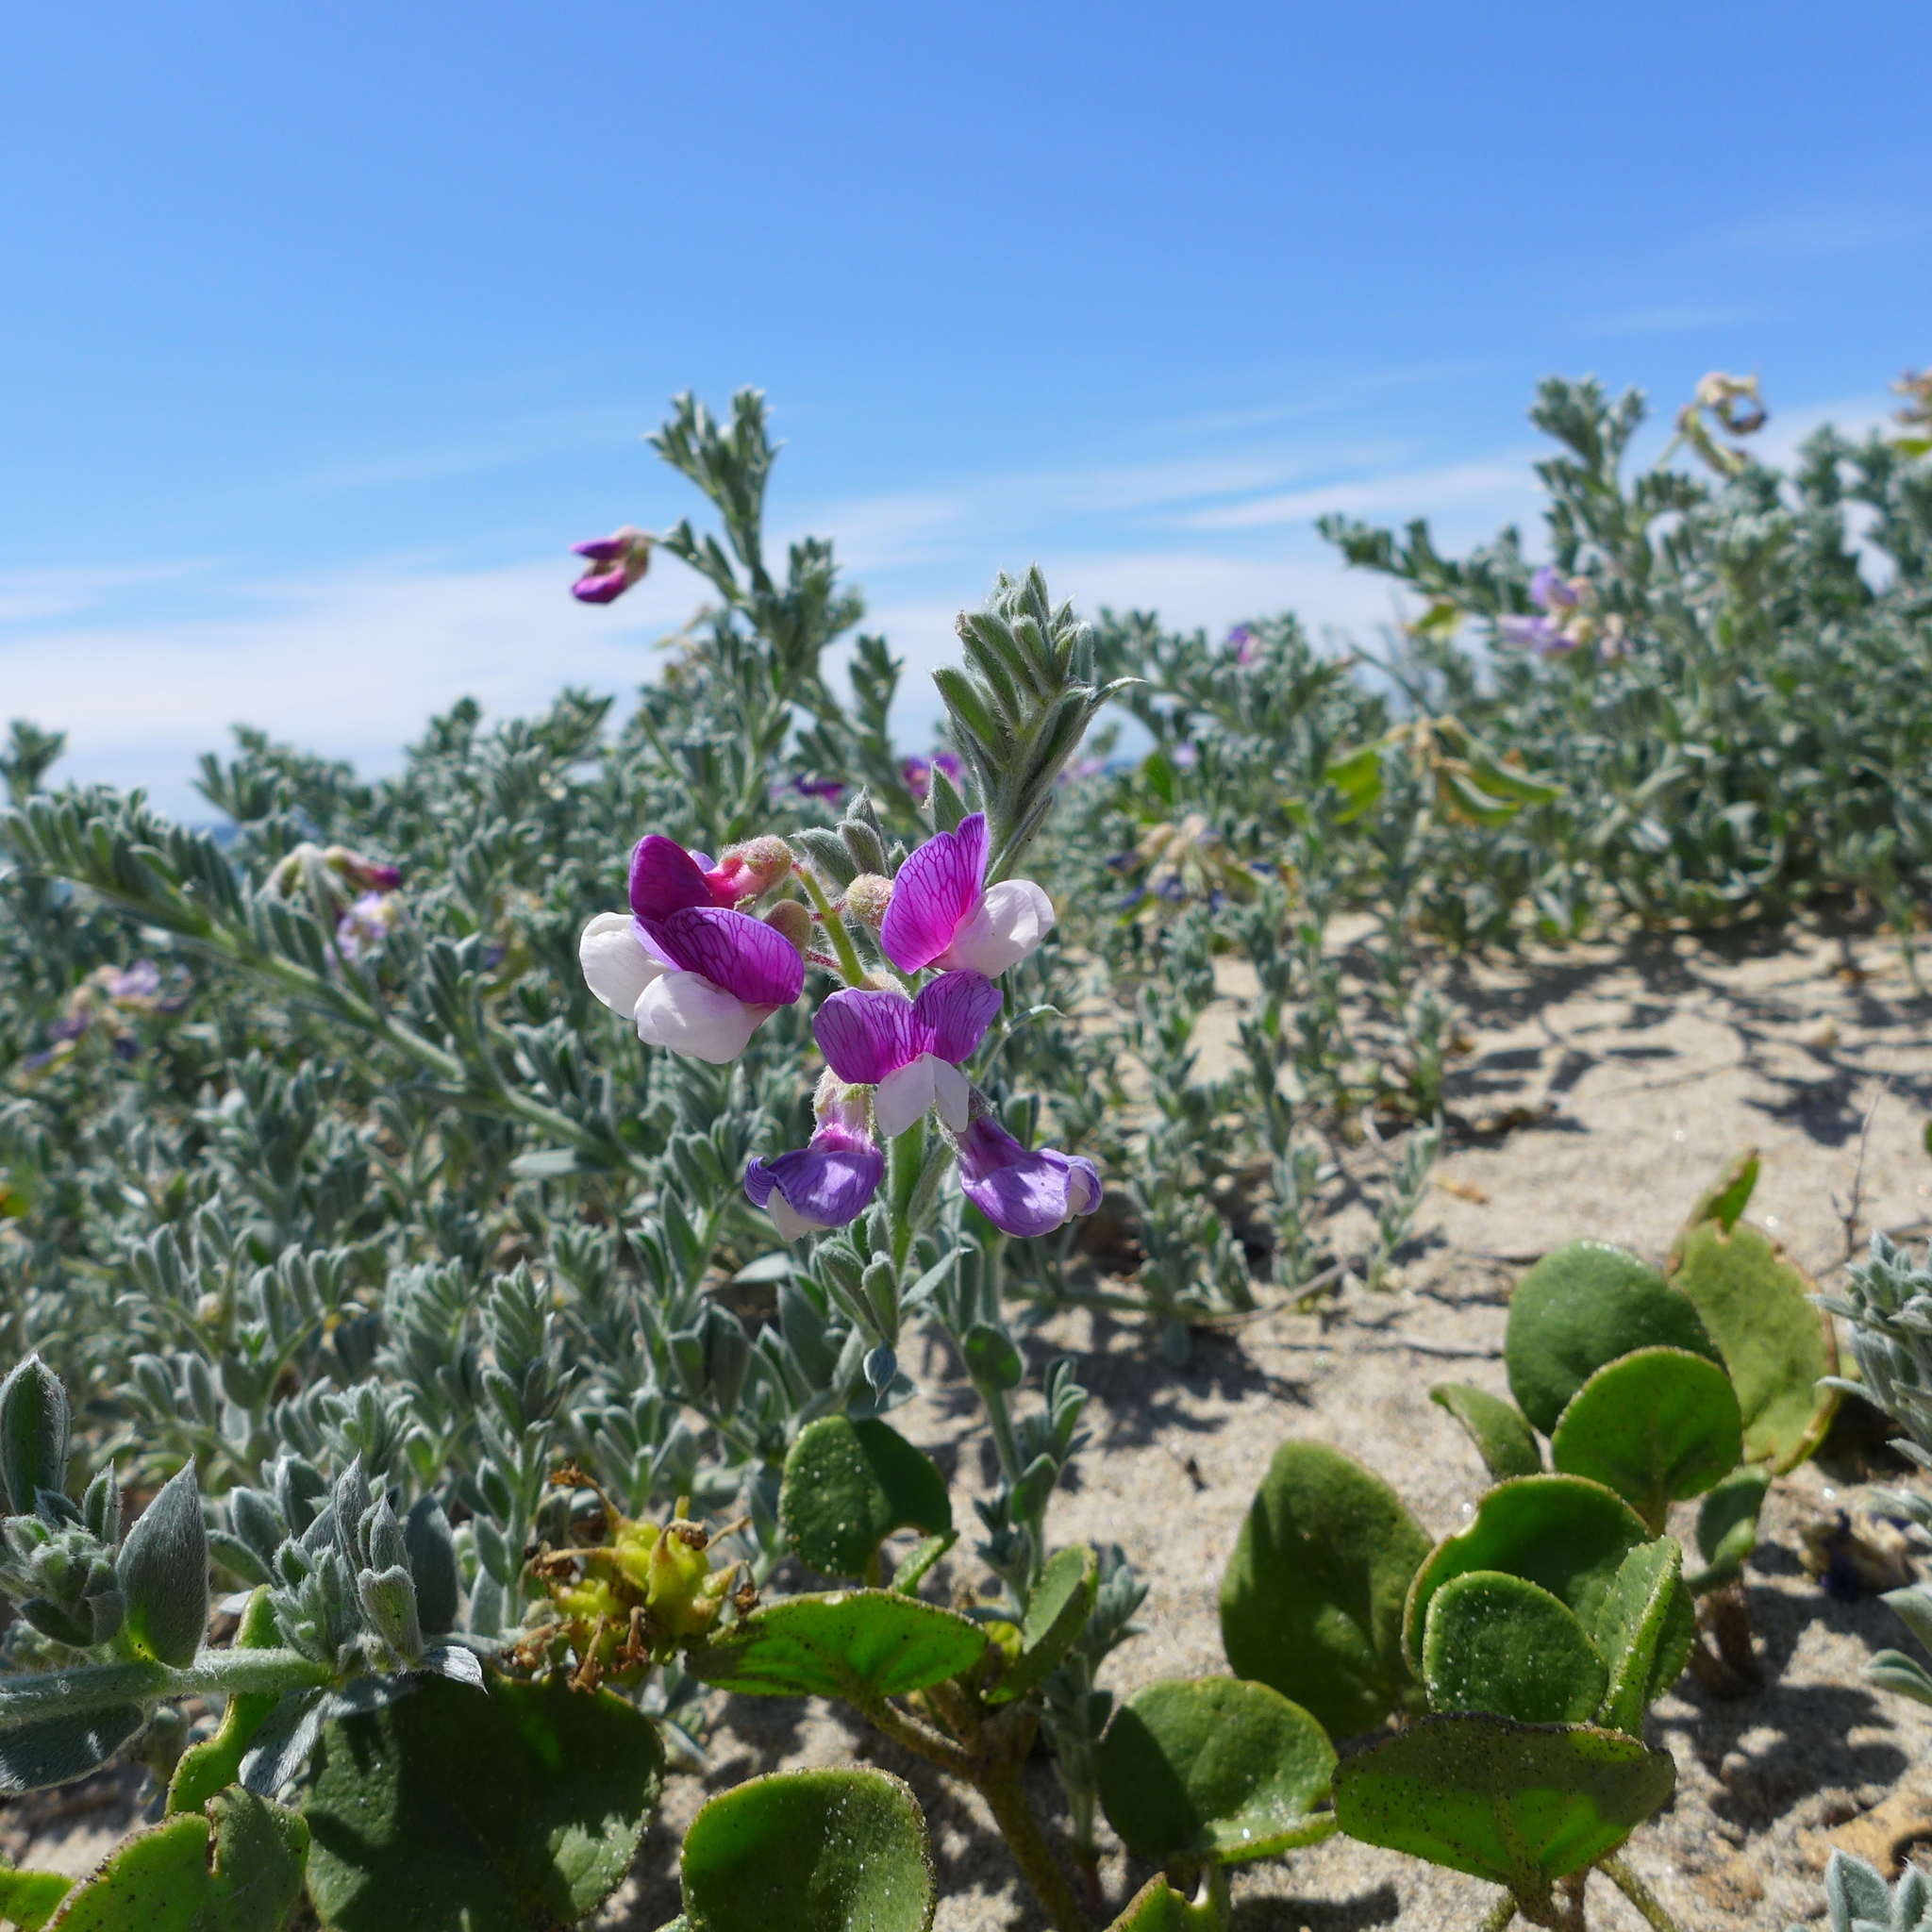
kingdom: Plantae
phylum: Tracheophyta
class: Magnoliopsida
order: Fabales
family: Fabaceae
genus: Lathyrus
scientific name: Lathyrus littoralis
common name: Dune sweet pea
